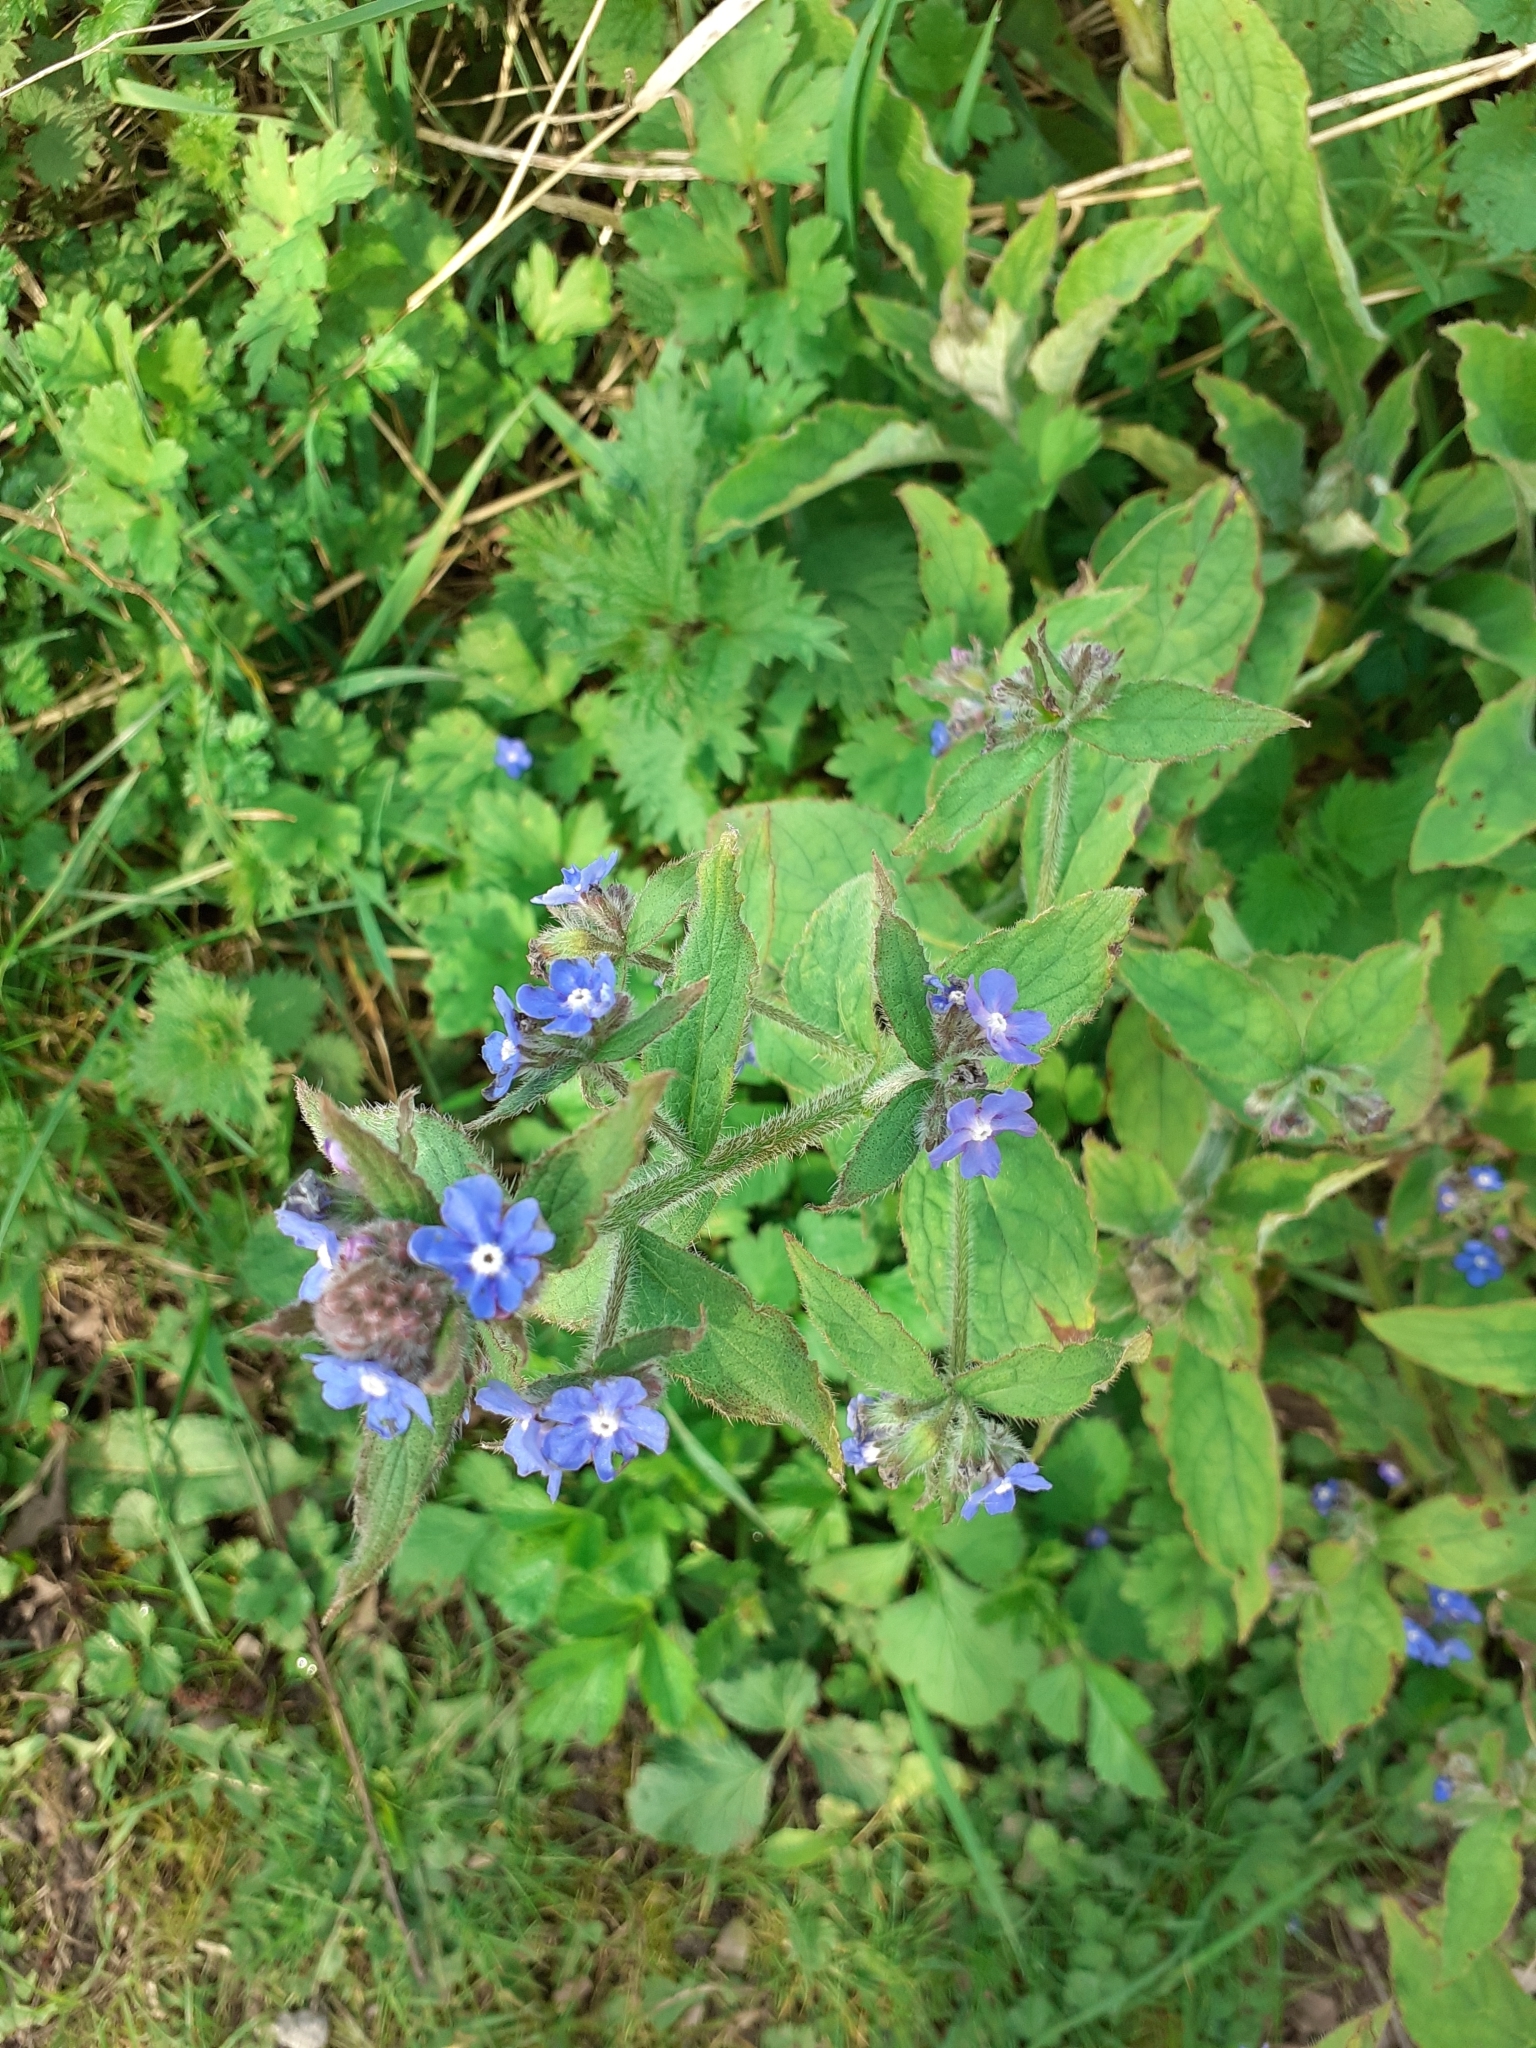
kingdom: Plantae
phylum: Tracheophyta
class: Magnoliopsida
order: Boraginales
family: Boraginaceae
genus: Pentaglottis
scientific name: Pentaglottis sempervirens
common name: Green alkanet
